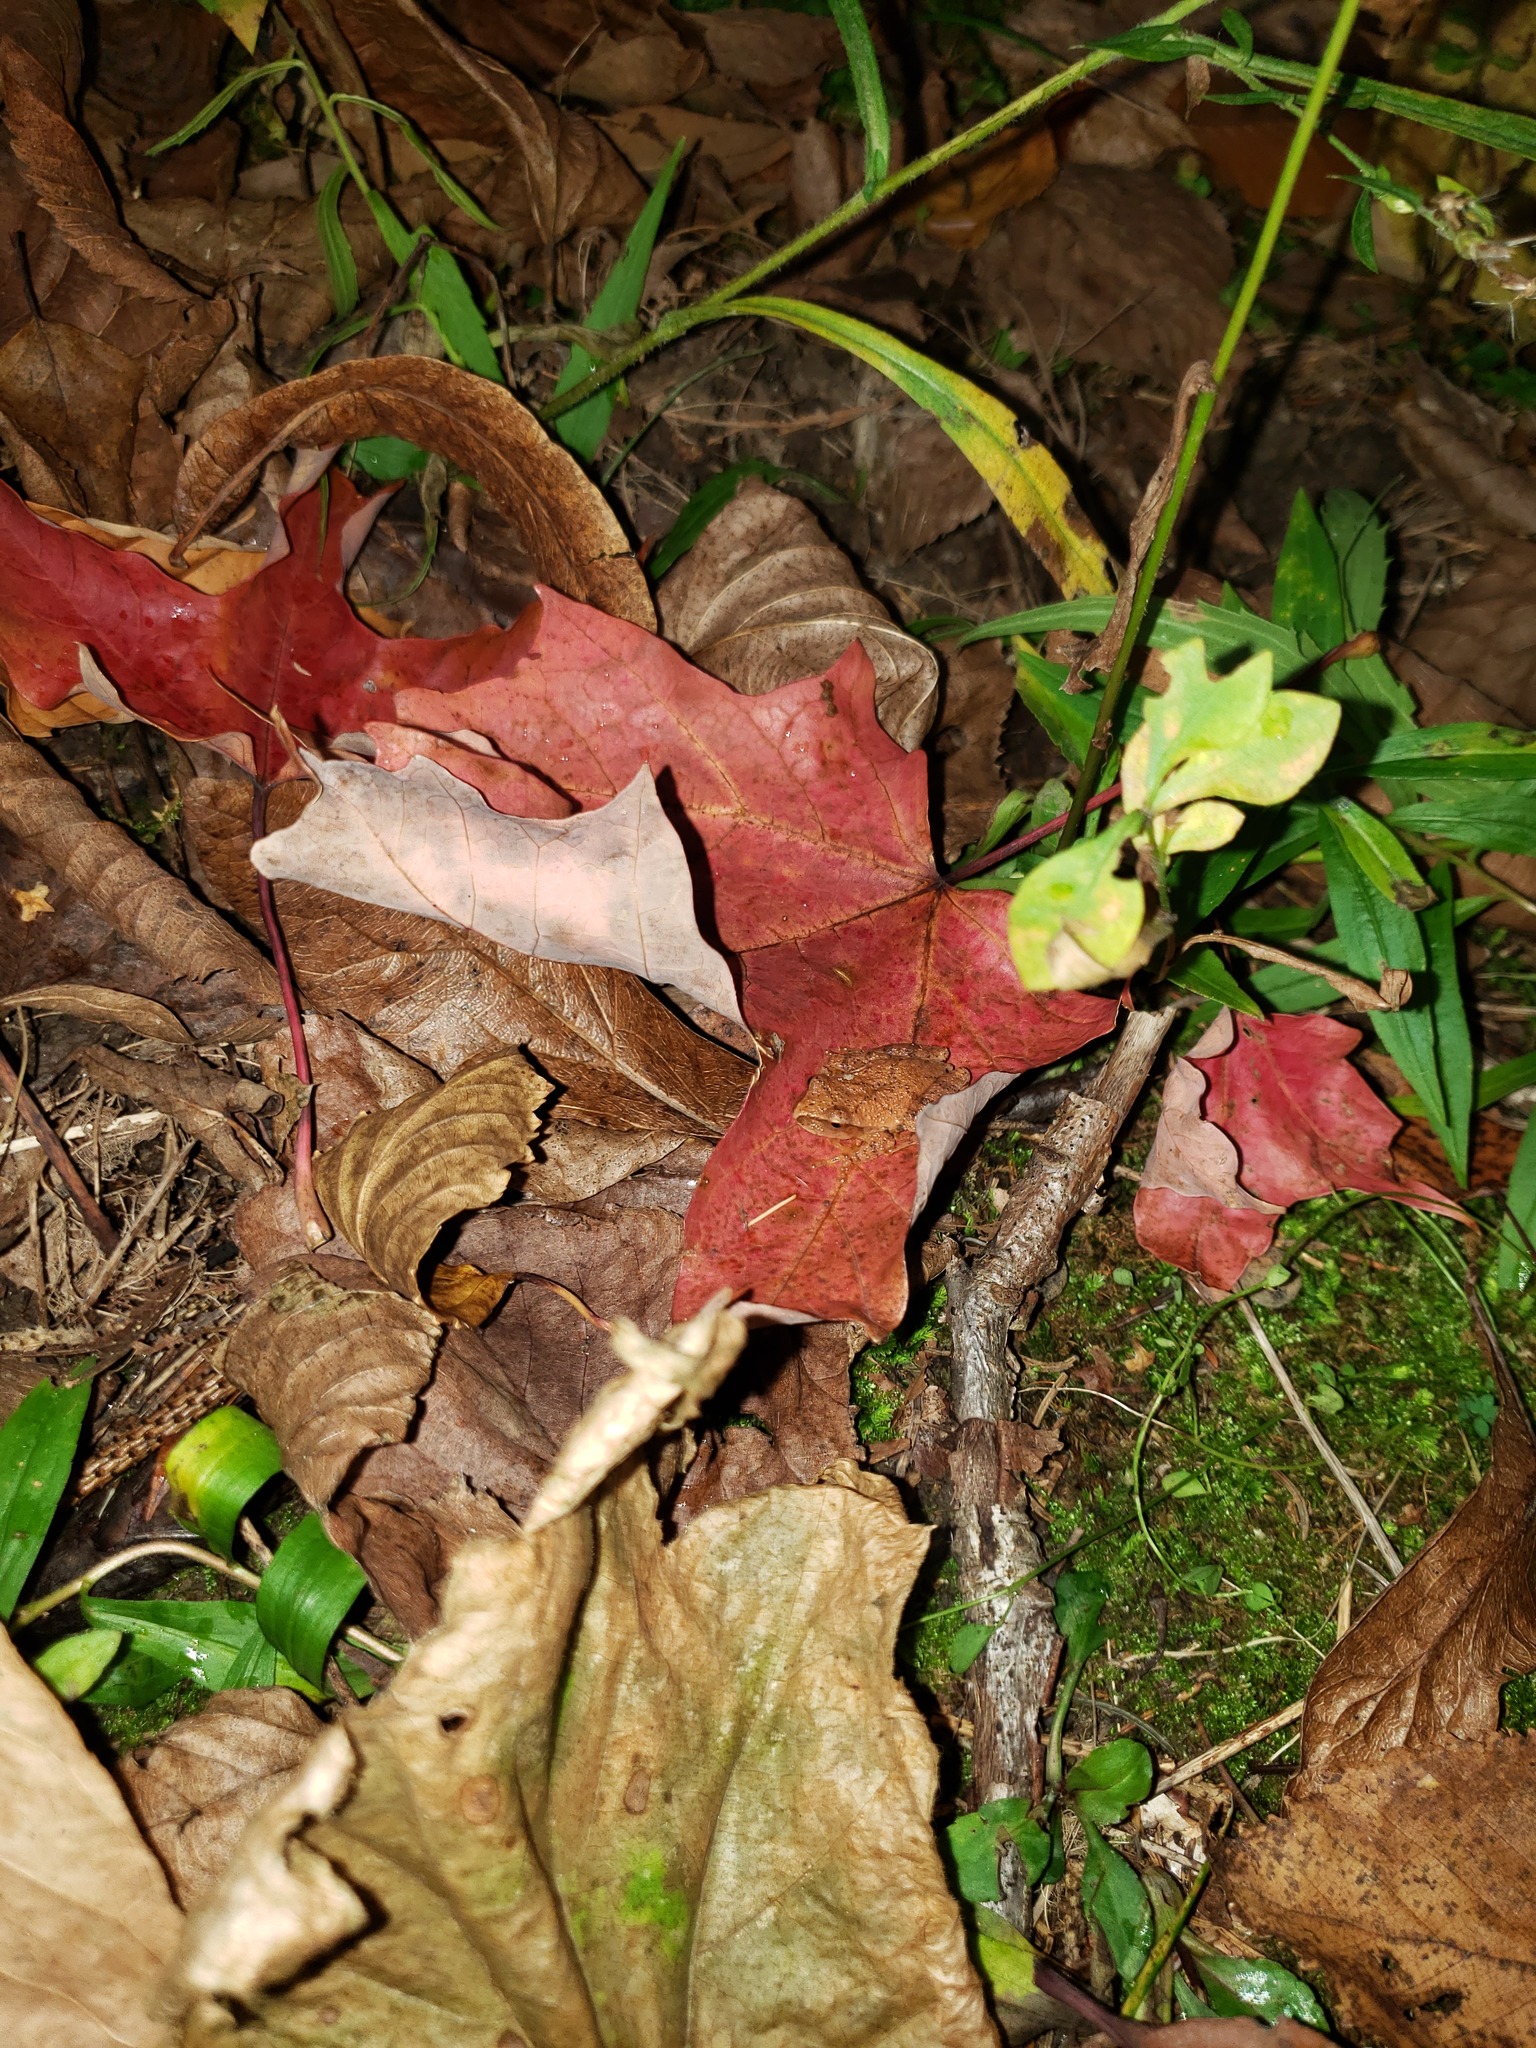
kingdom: Animalia
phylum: Chordata
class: Amphibia
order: Anura
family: Hylidae
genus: Pseudacris
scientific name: Pseudacris crucifer
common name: Spring peeper
